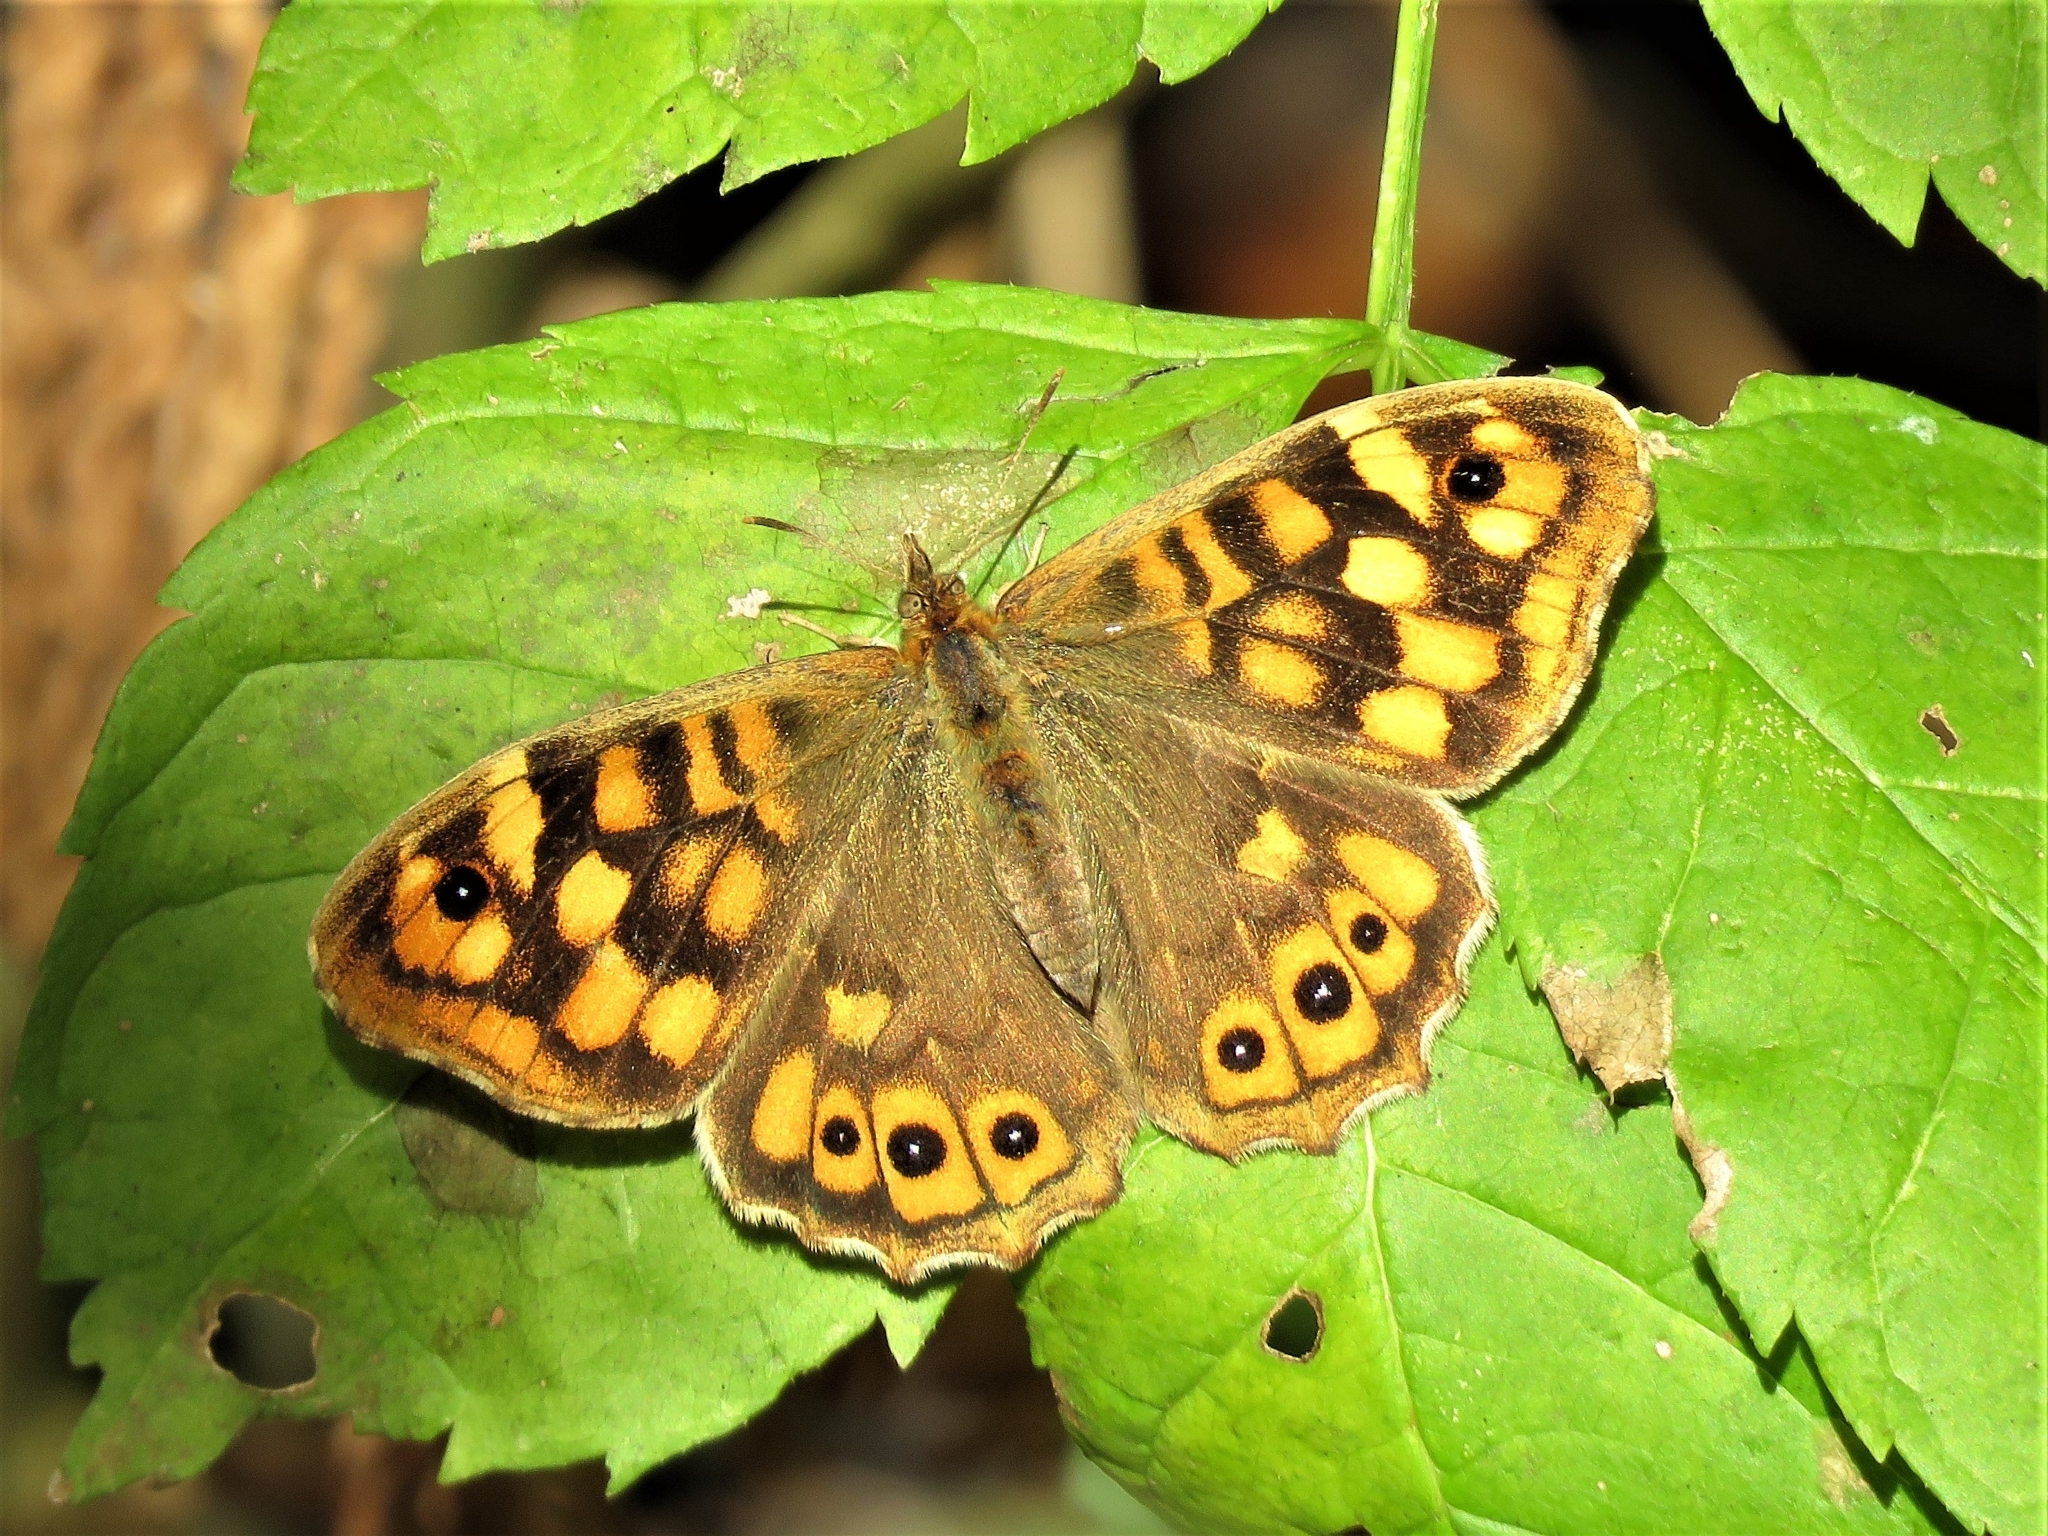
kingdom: Animalia
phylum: Arthropoda
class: Insecta
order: Lepidoptera
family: Nymphalidae
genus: Pararge
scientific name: Pararge aegeria
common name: Speckled wood
